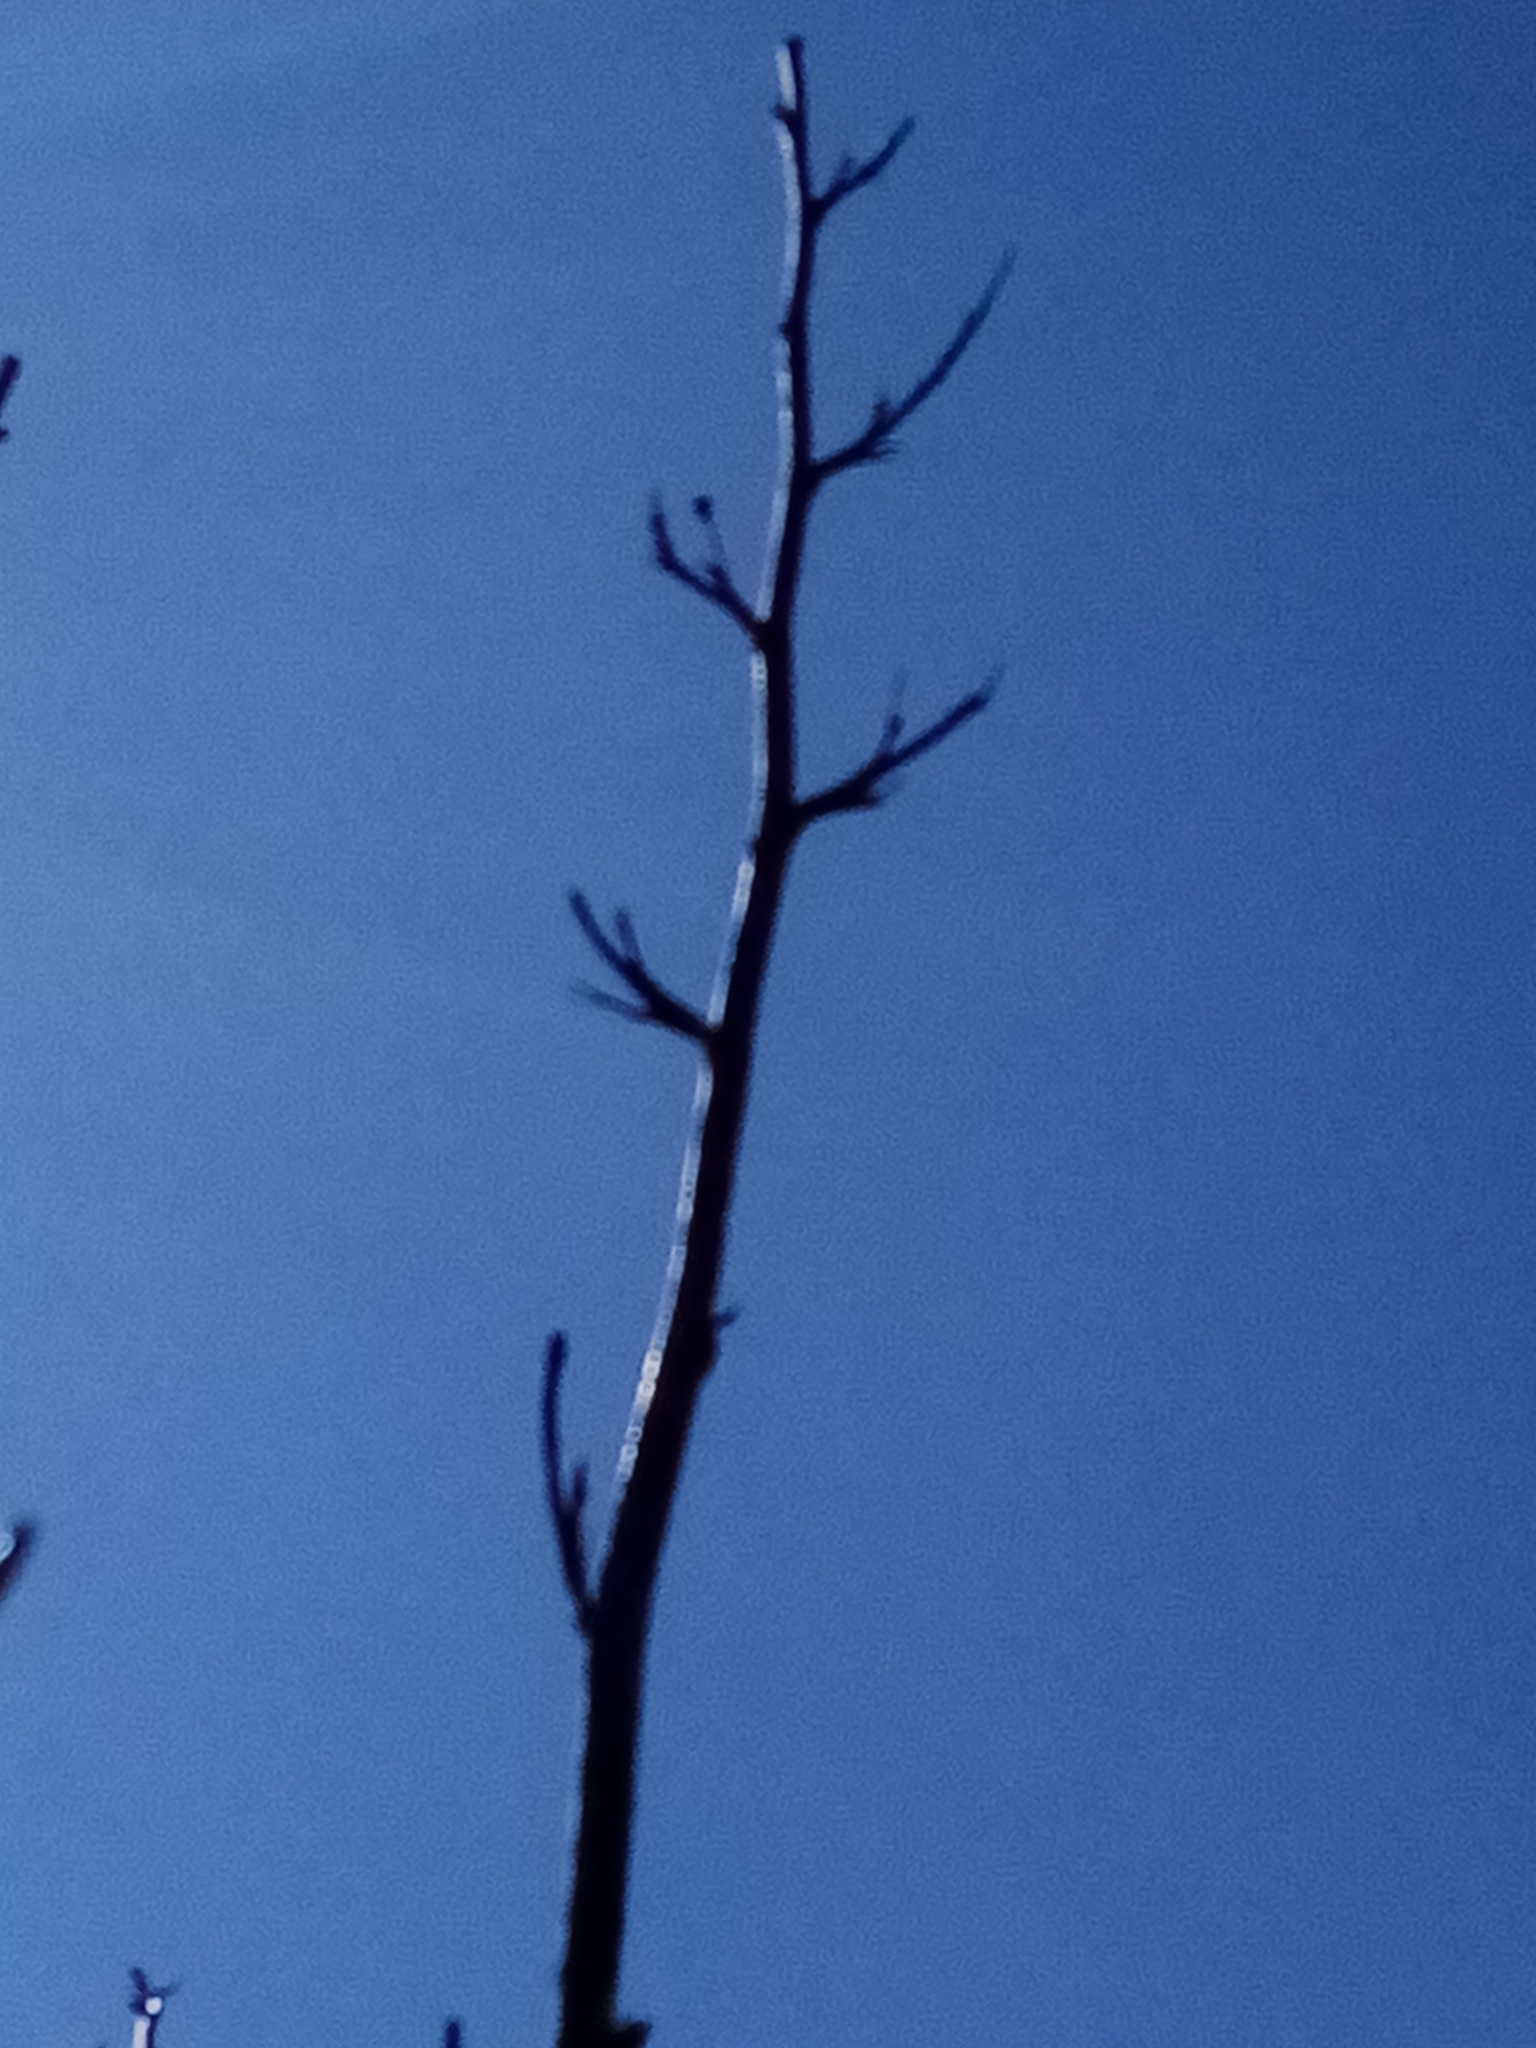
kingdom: Plantae
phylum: Tracheophyta
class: Liliopsida
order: Asparagales
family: Asphodelaceae
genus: Phormium
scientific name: Phormium tenax
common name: New zealand flax
